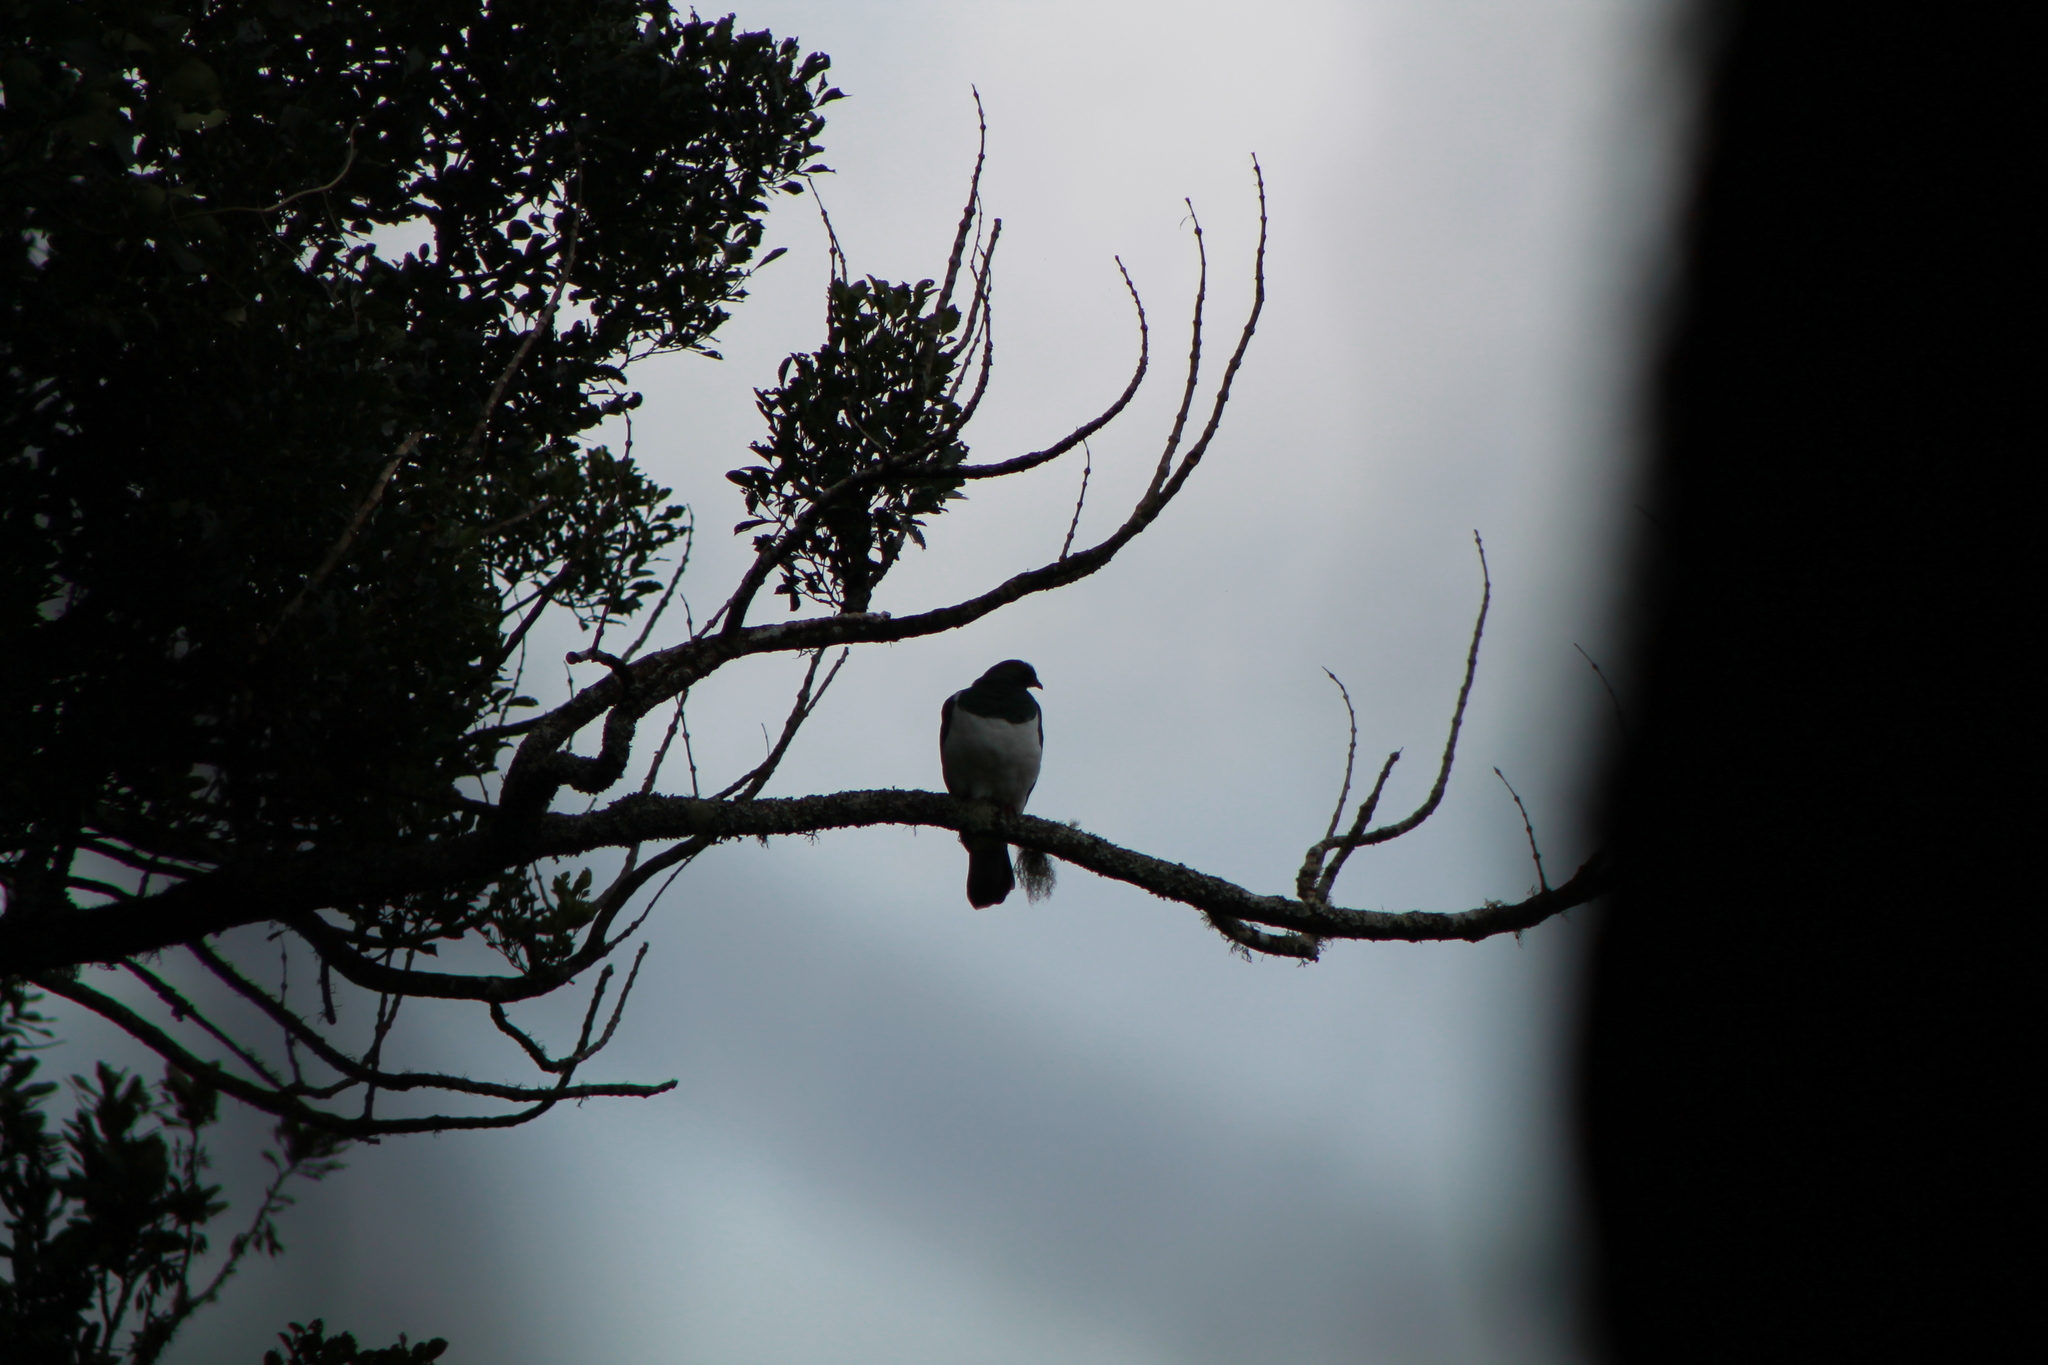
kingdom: Animalia
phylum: Chordata
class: Aves
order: Columbiformes
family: Columbidae
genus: Hemiphaga
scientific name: Hemiphaga novaeseelandiae
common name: New zealand pigeon
